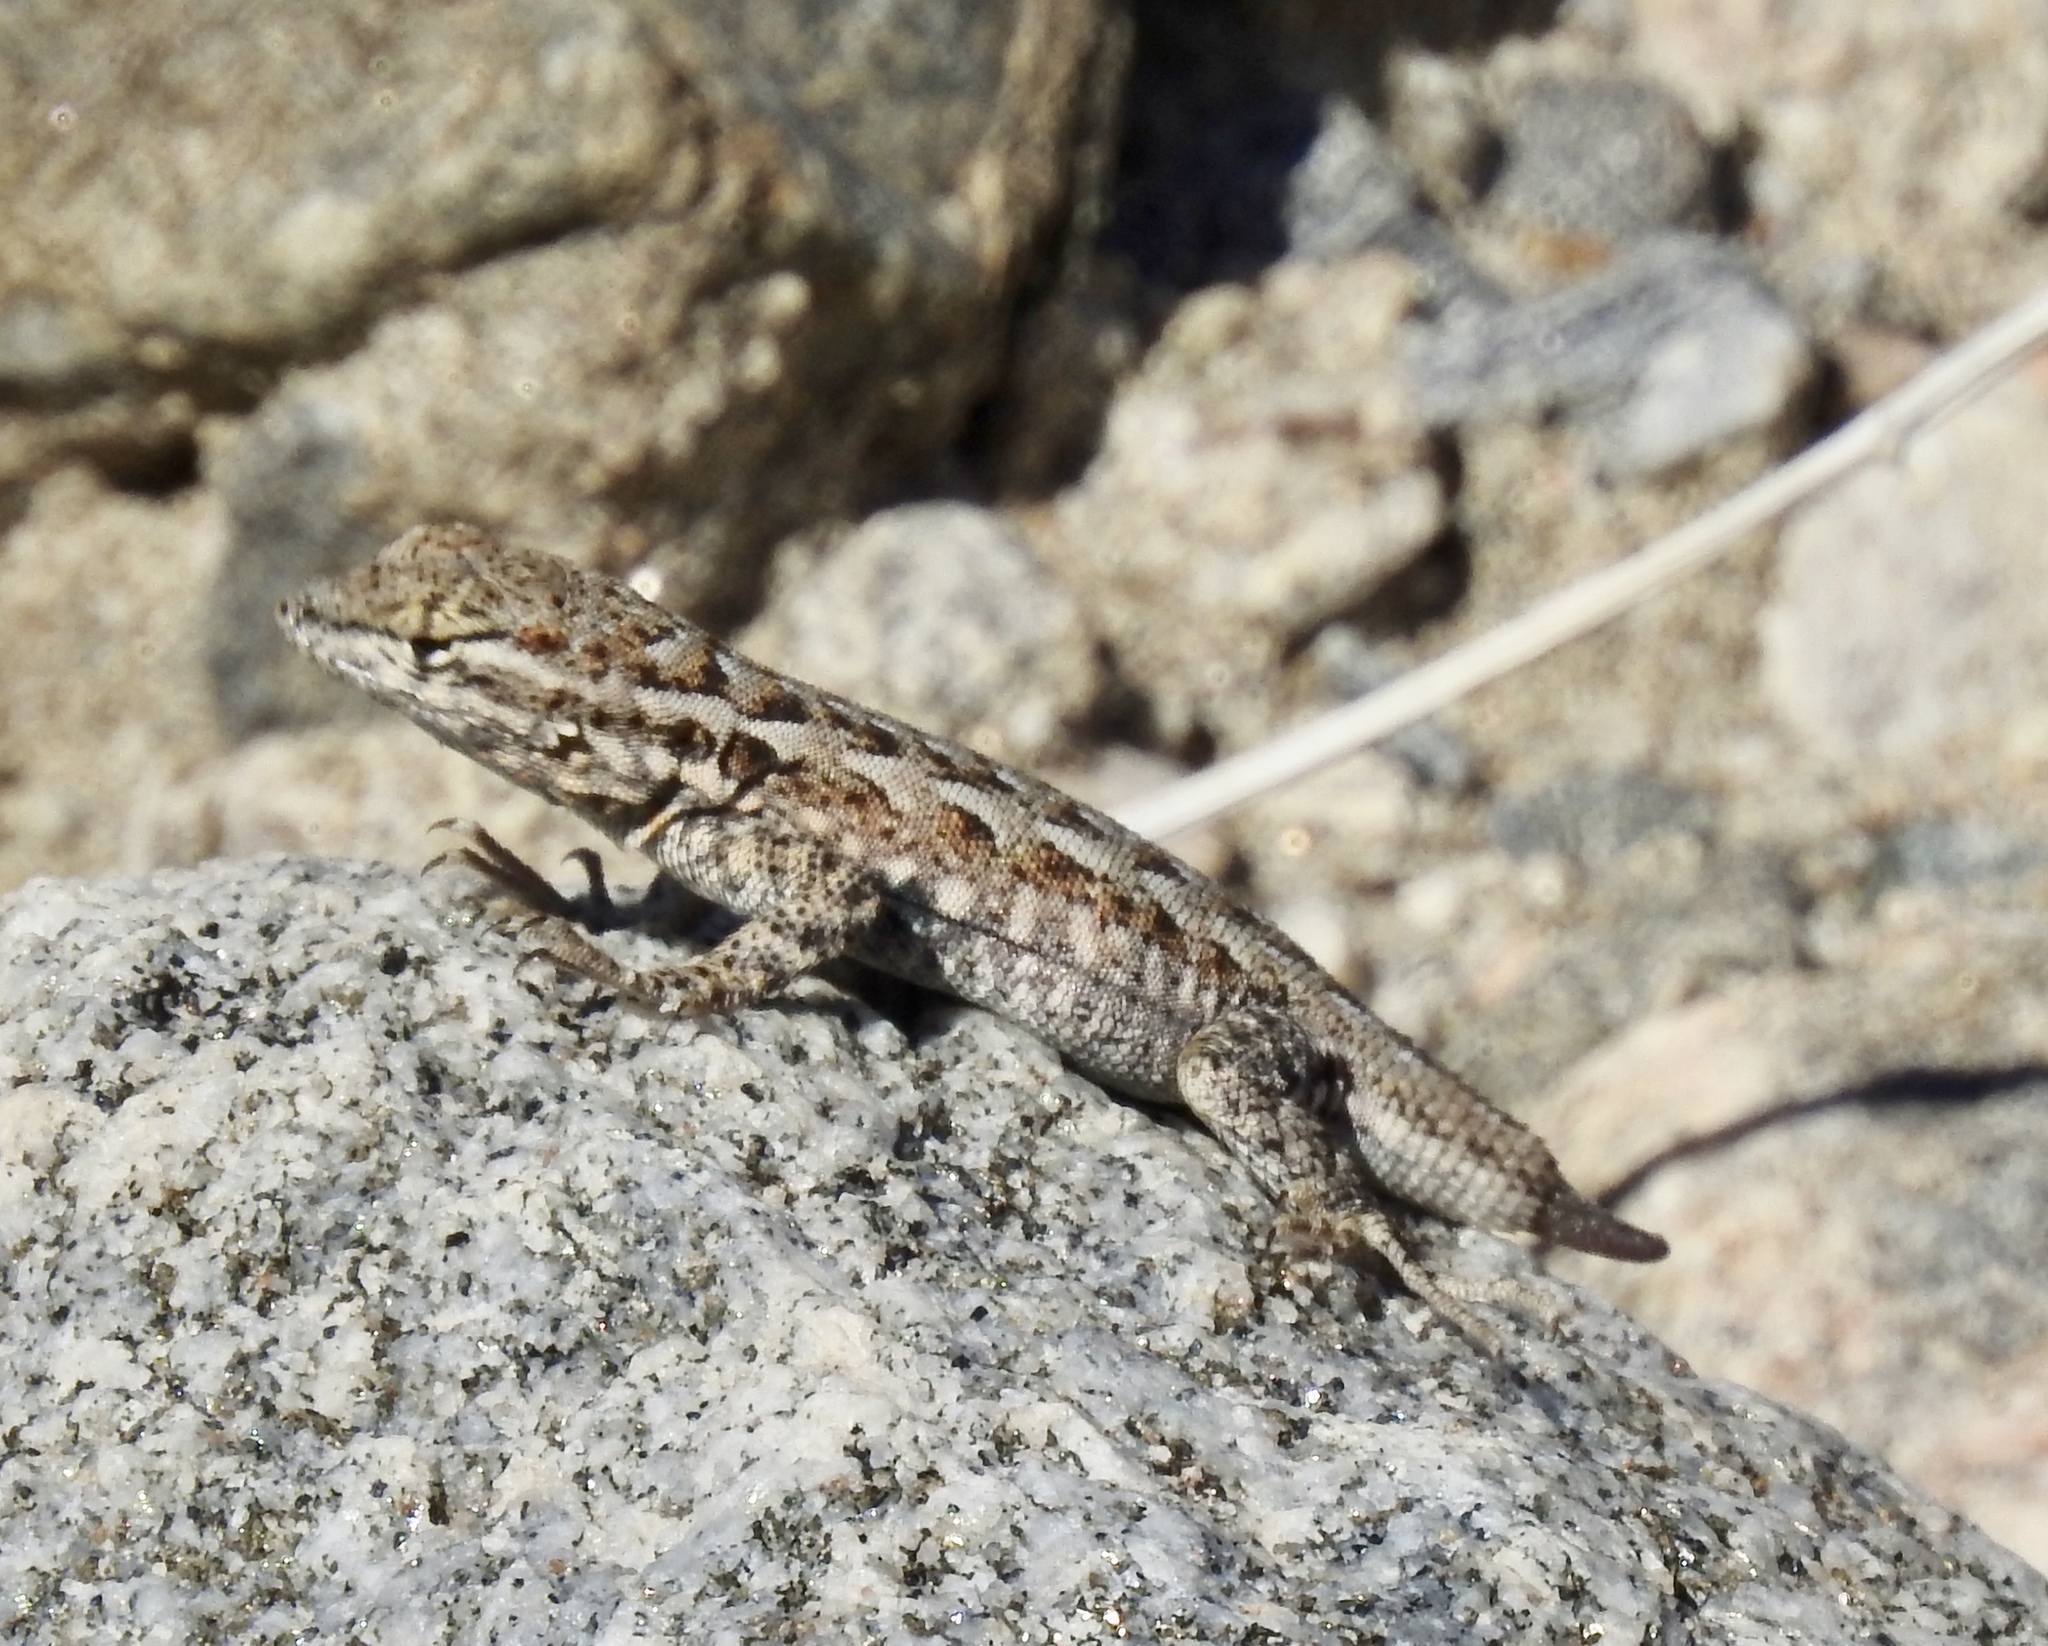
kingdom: Animalia
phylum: Chordata
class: Squamata
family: Phrynosomatidae
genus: Uta
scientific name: Uta stansburiana
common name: Side-blotched lizard
